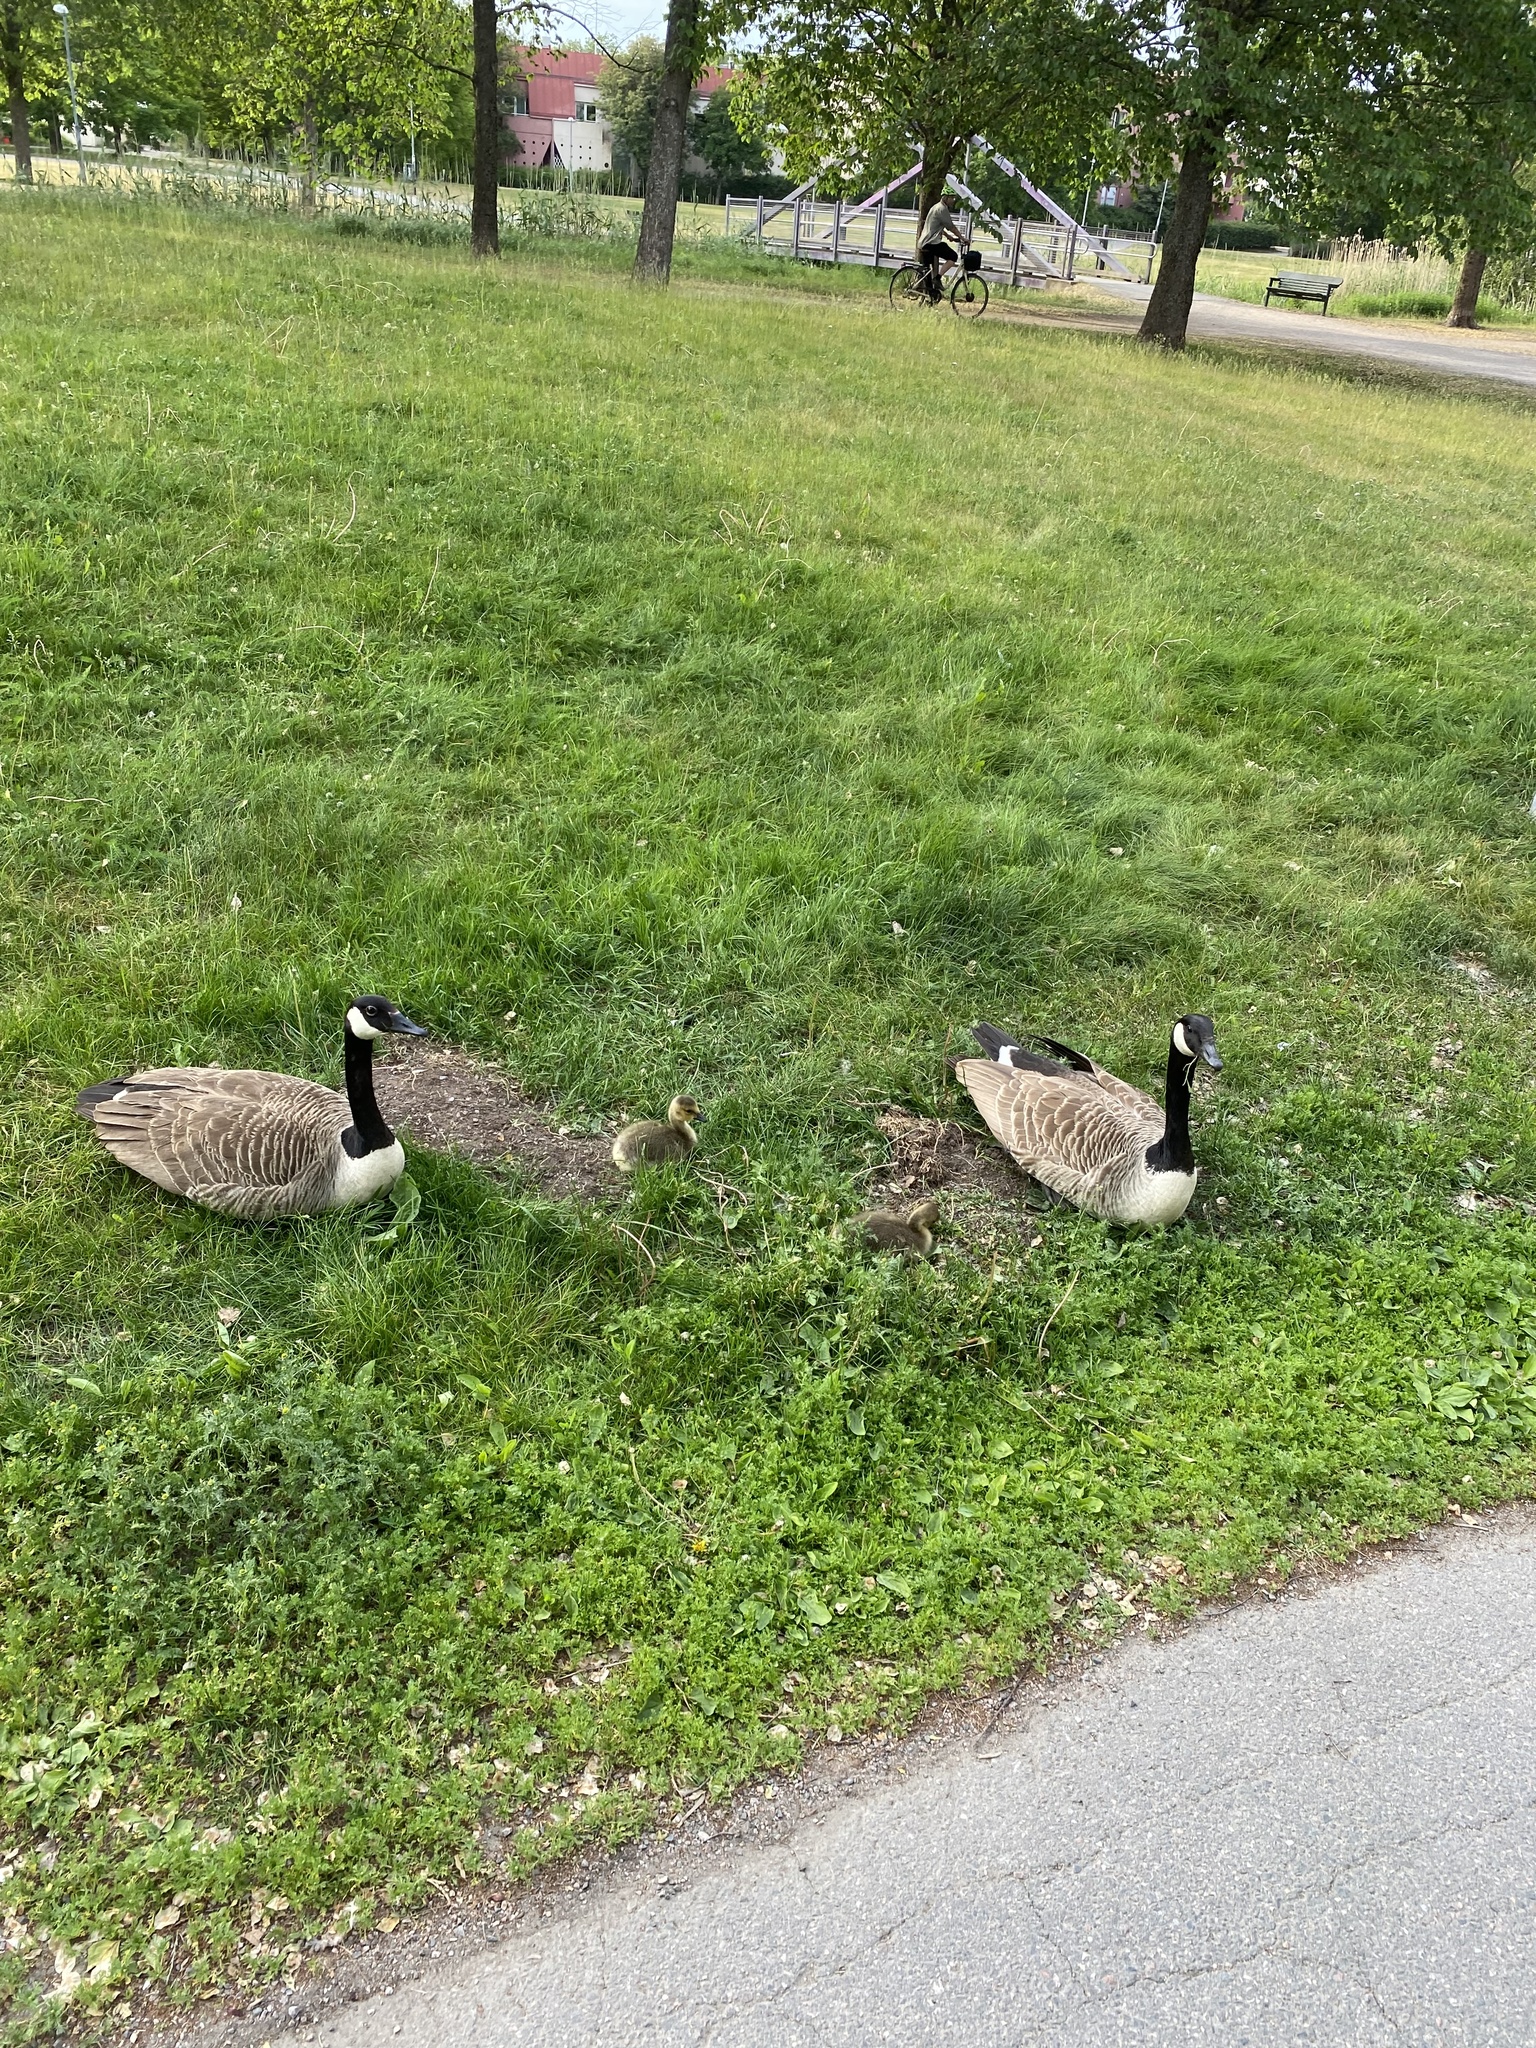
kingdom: Animalia
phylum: Chordata
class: Aves
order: Anseriformes
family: Anatidae
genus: Branta
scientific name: Branta canadensis
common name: Canada goose
